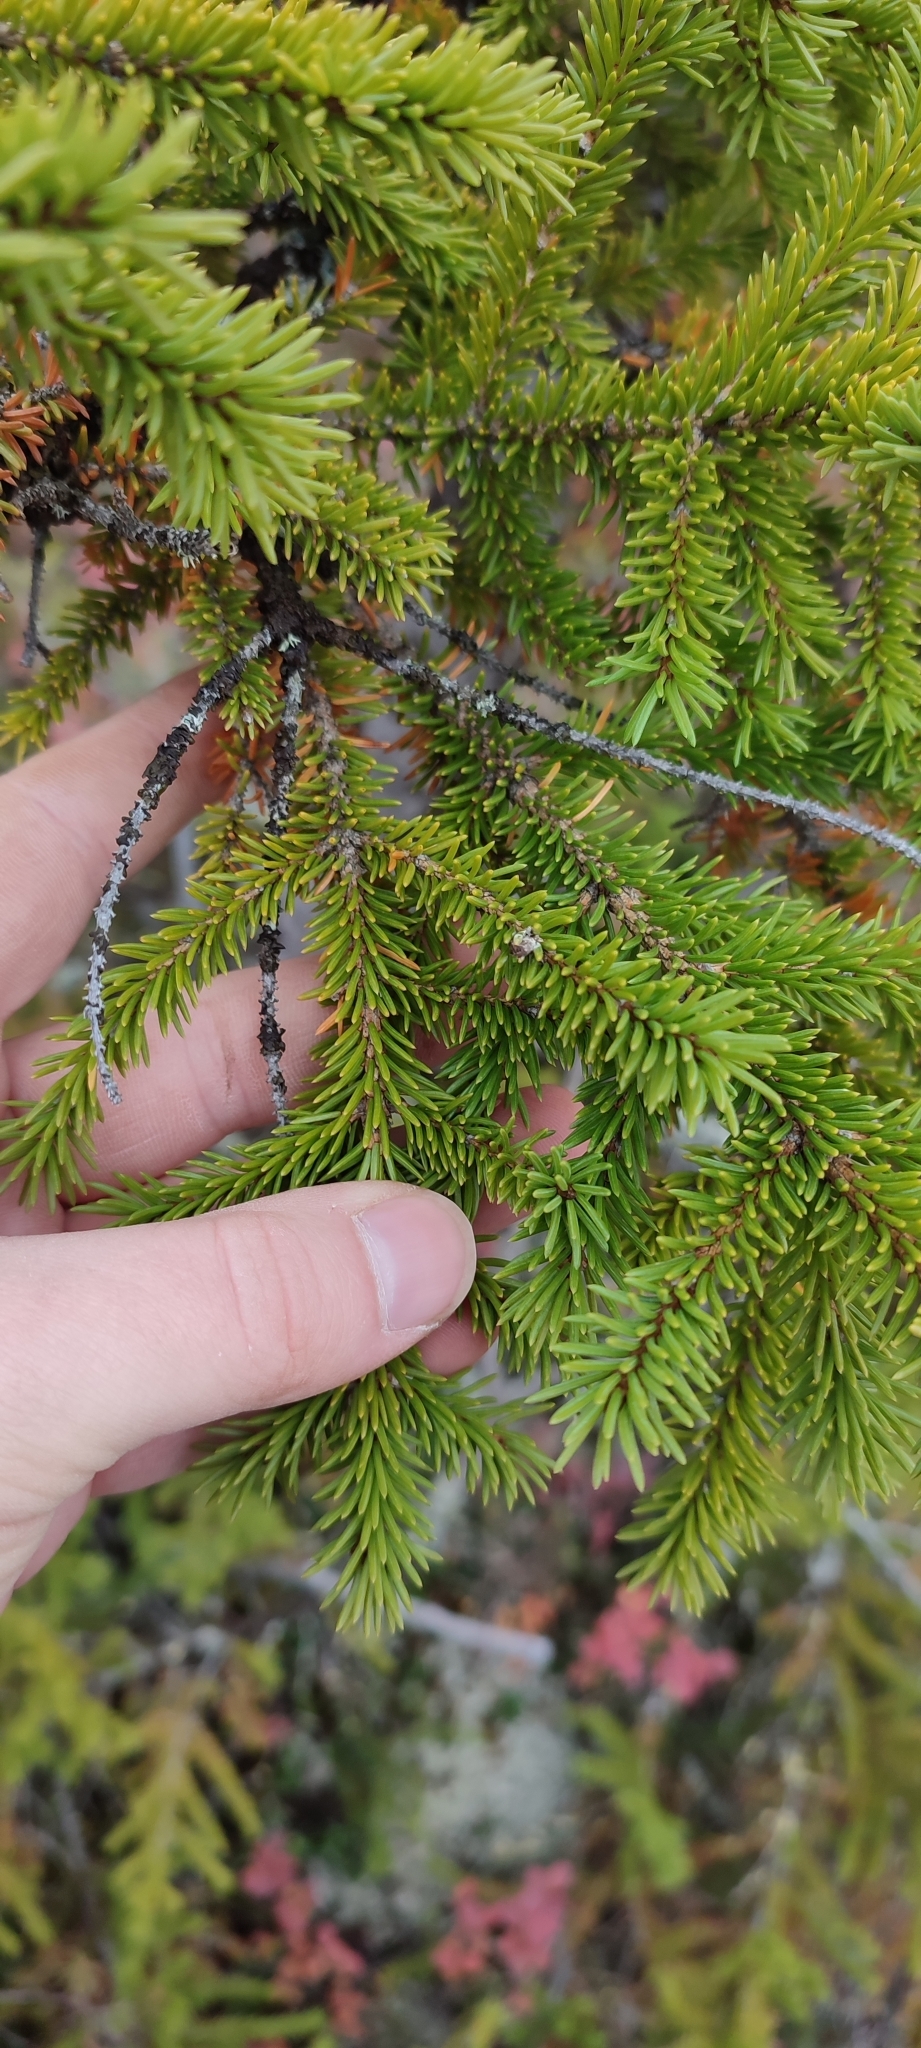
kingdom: Plantae
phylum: Tracheophyta
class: Pinopsida
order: Pinales
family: Pinaceae
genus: Picea
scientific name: Picea obovata
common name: Siberian spruce
